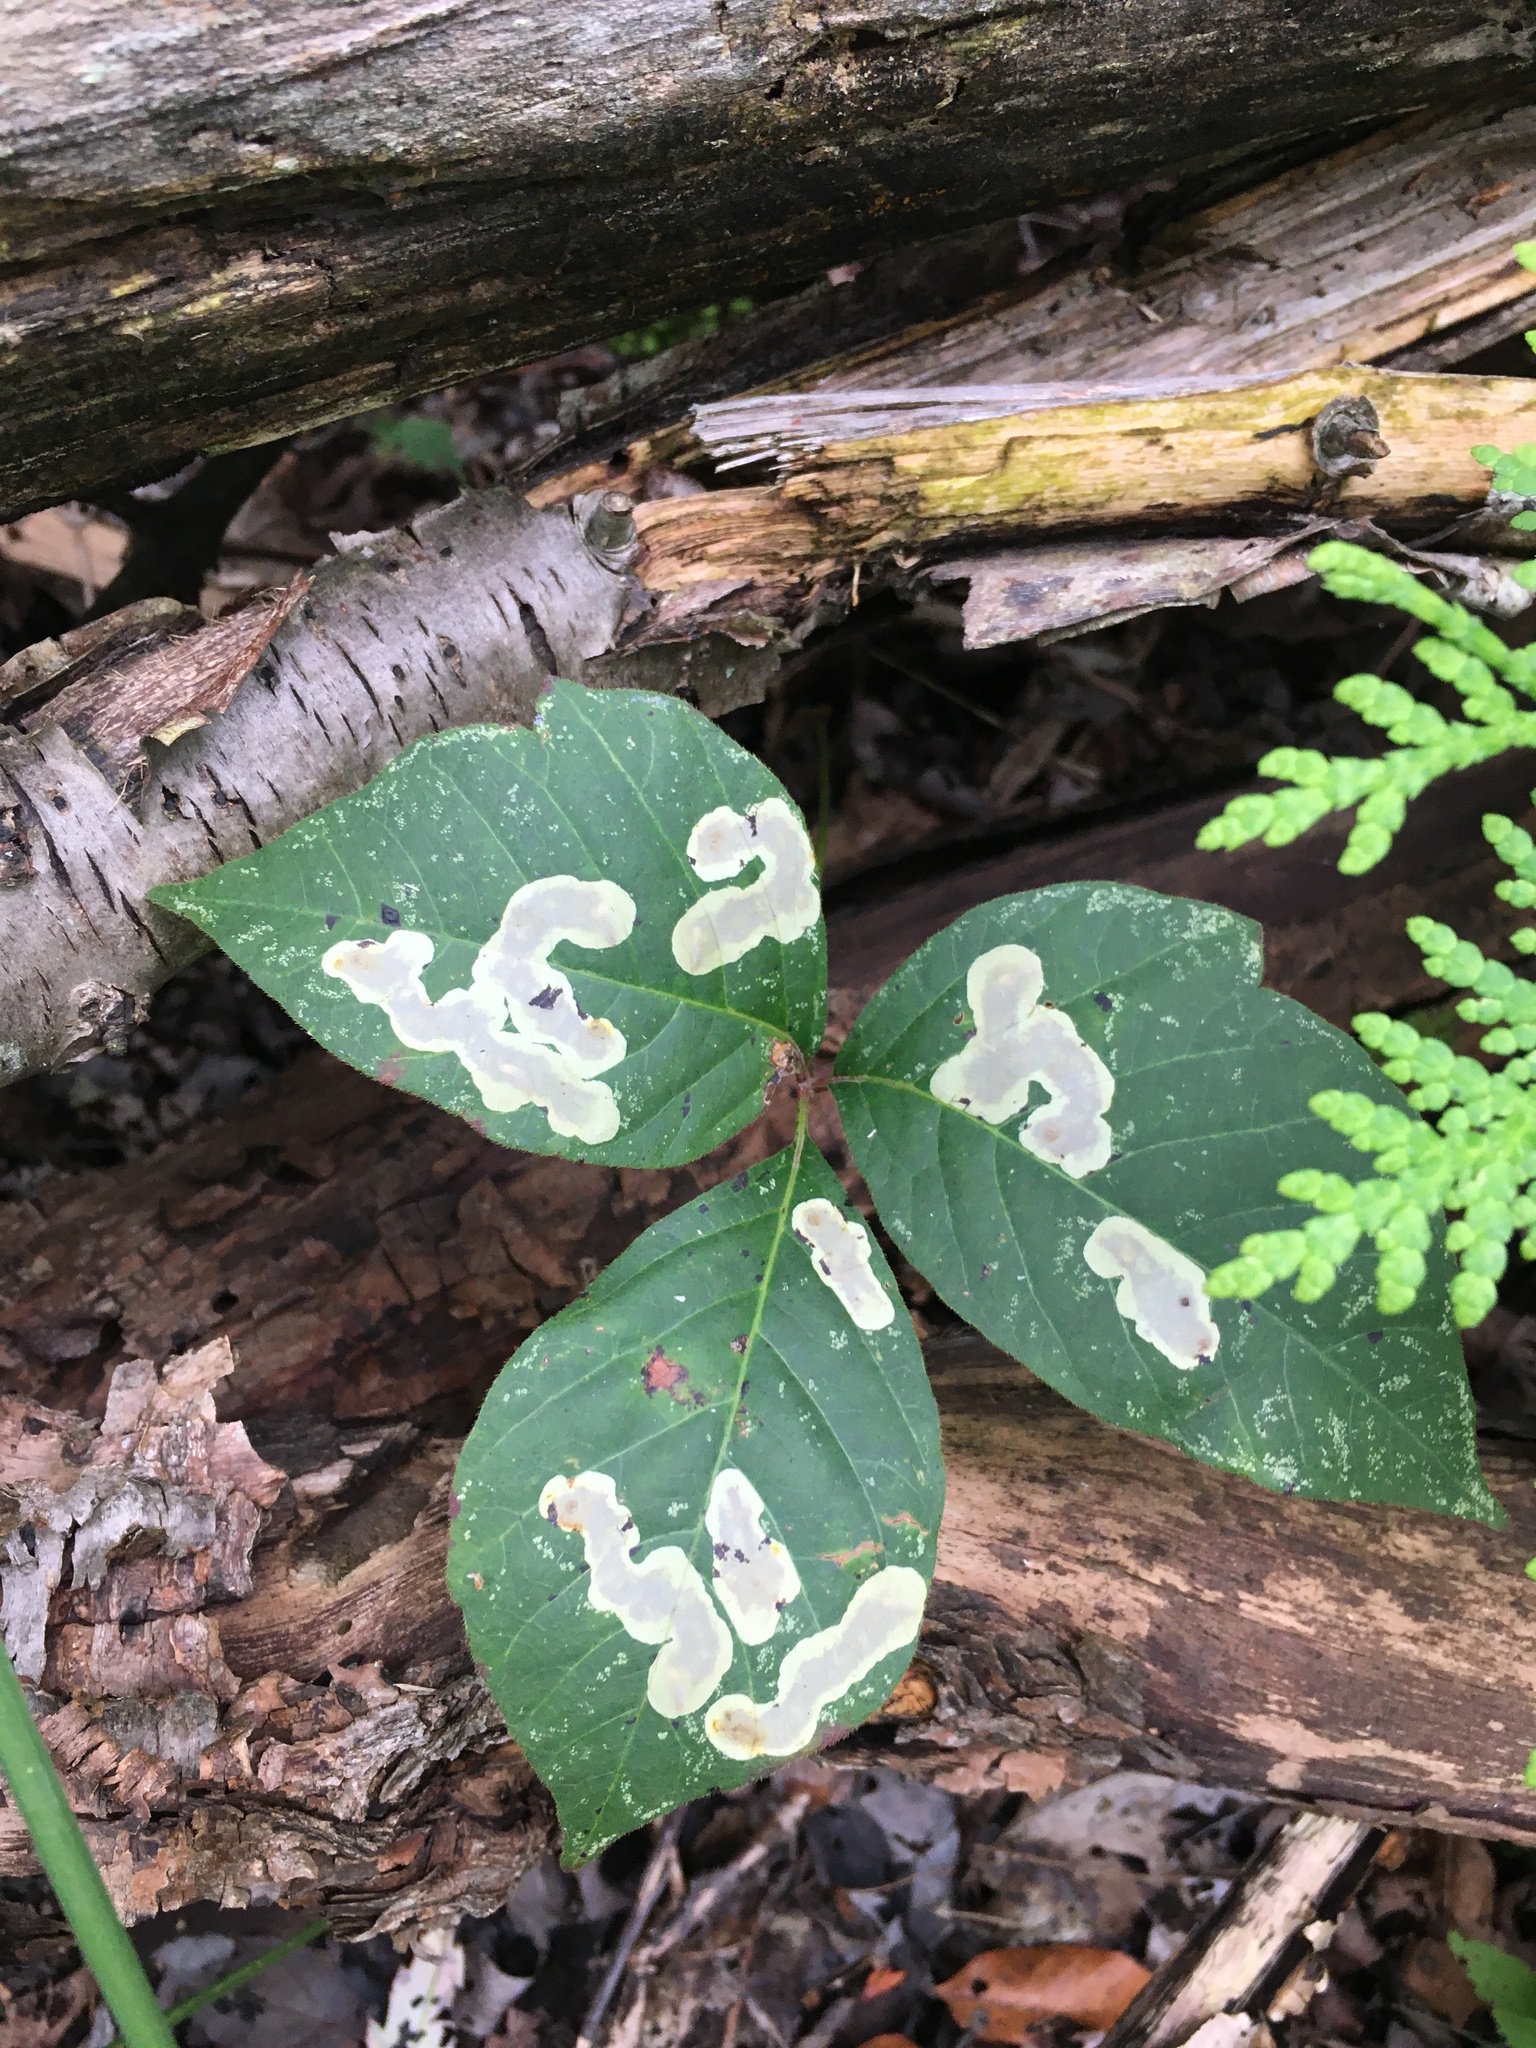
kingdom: Animalia
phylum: Arthropoda
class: Insecta
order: Lepidoptera
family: Gracillariidae
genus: Cameraria
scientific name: Cameraria guttifinitella
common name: Poison ivy leaf-miner moth
